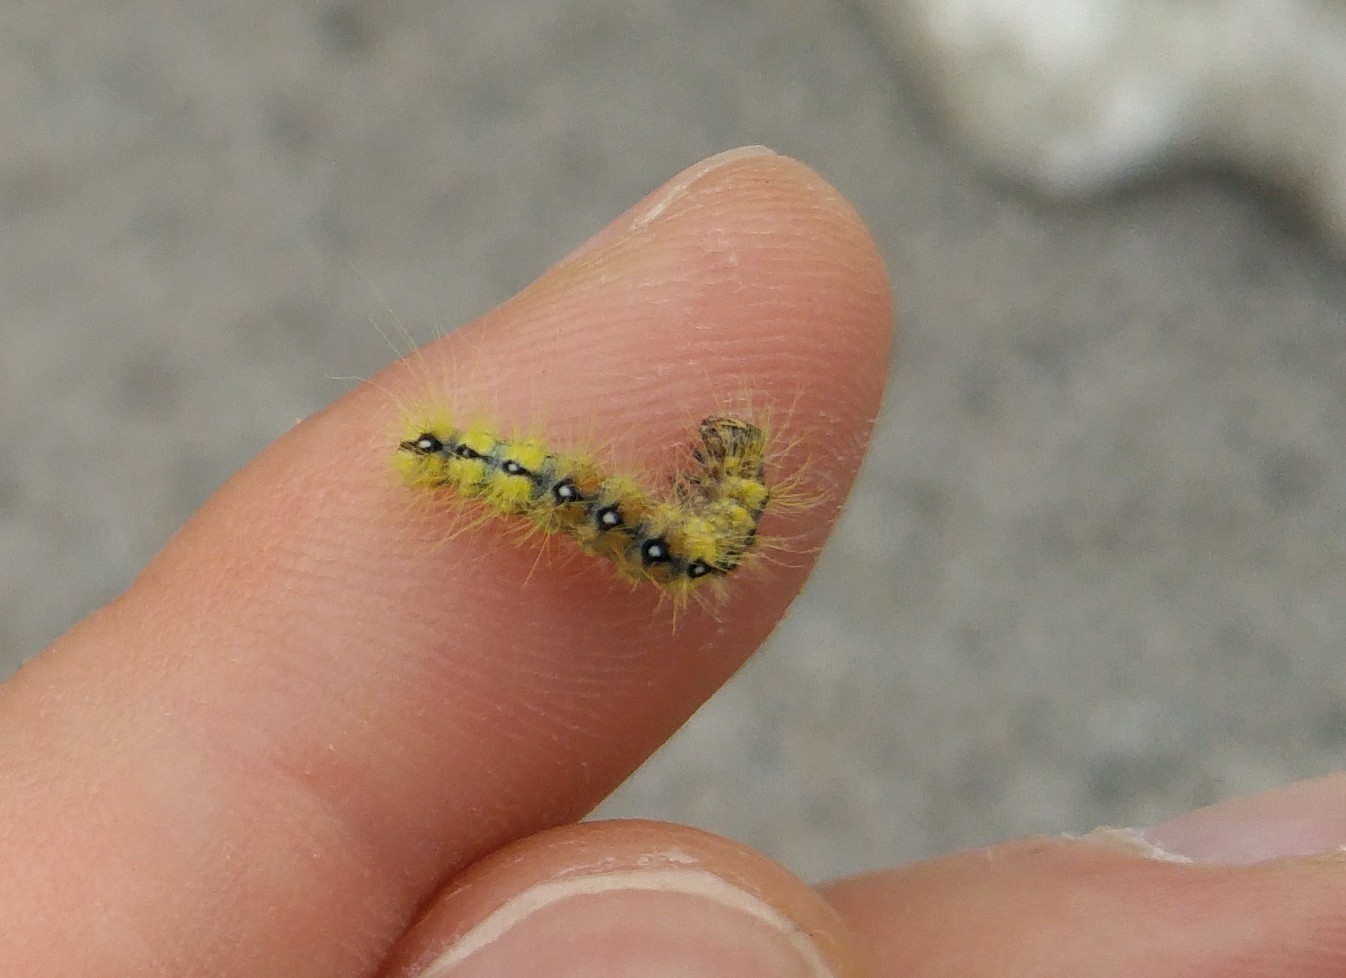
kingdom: Animalia
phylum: Arthropoda
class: Insecta
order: Lepidoptera
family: Noctuidae
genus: Acronicta
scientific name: Acronicta aceris
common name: Sycamore
